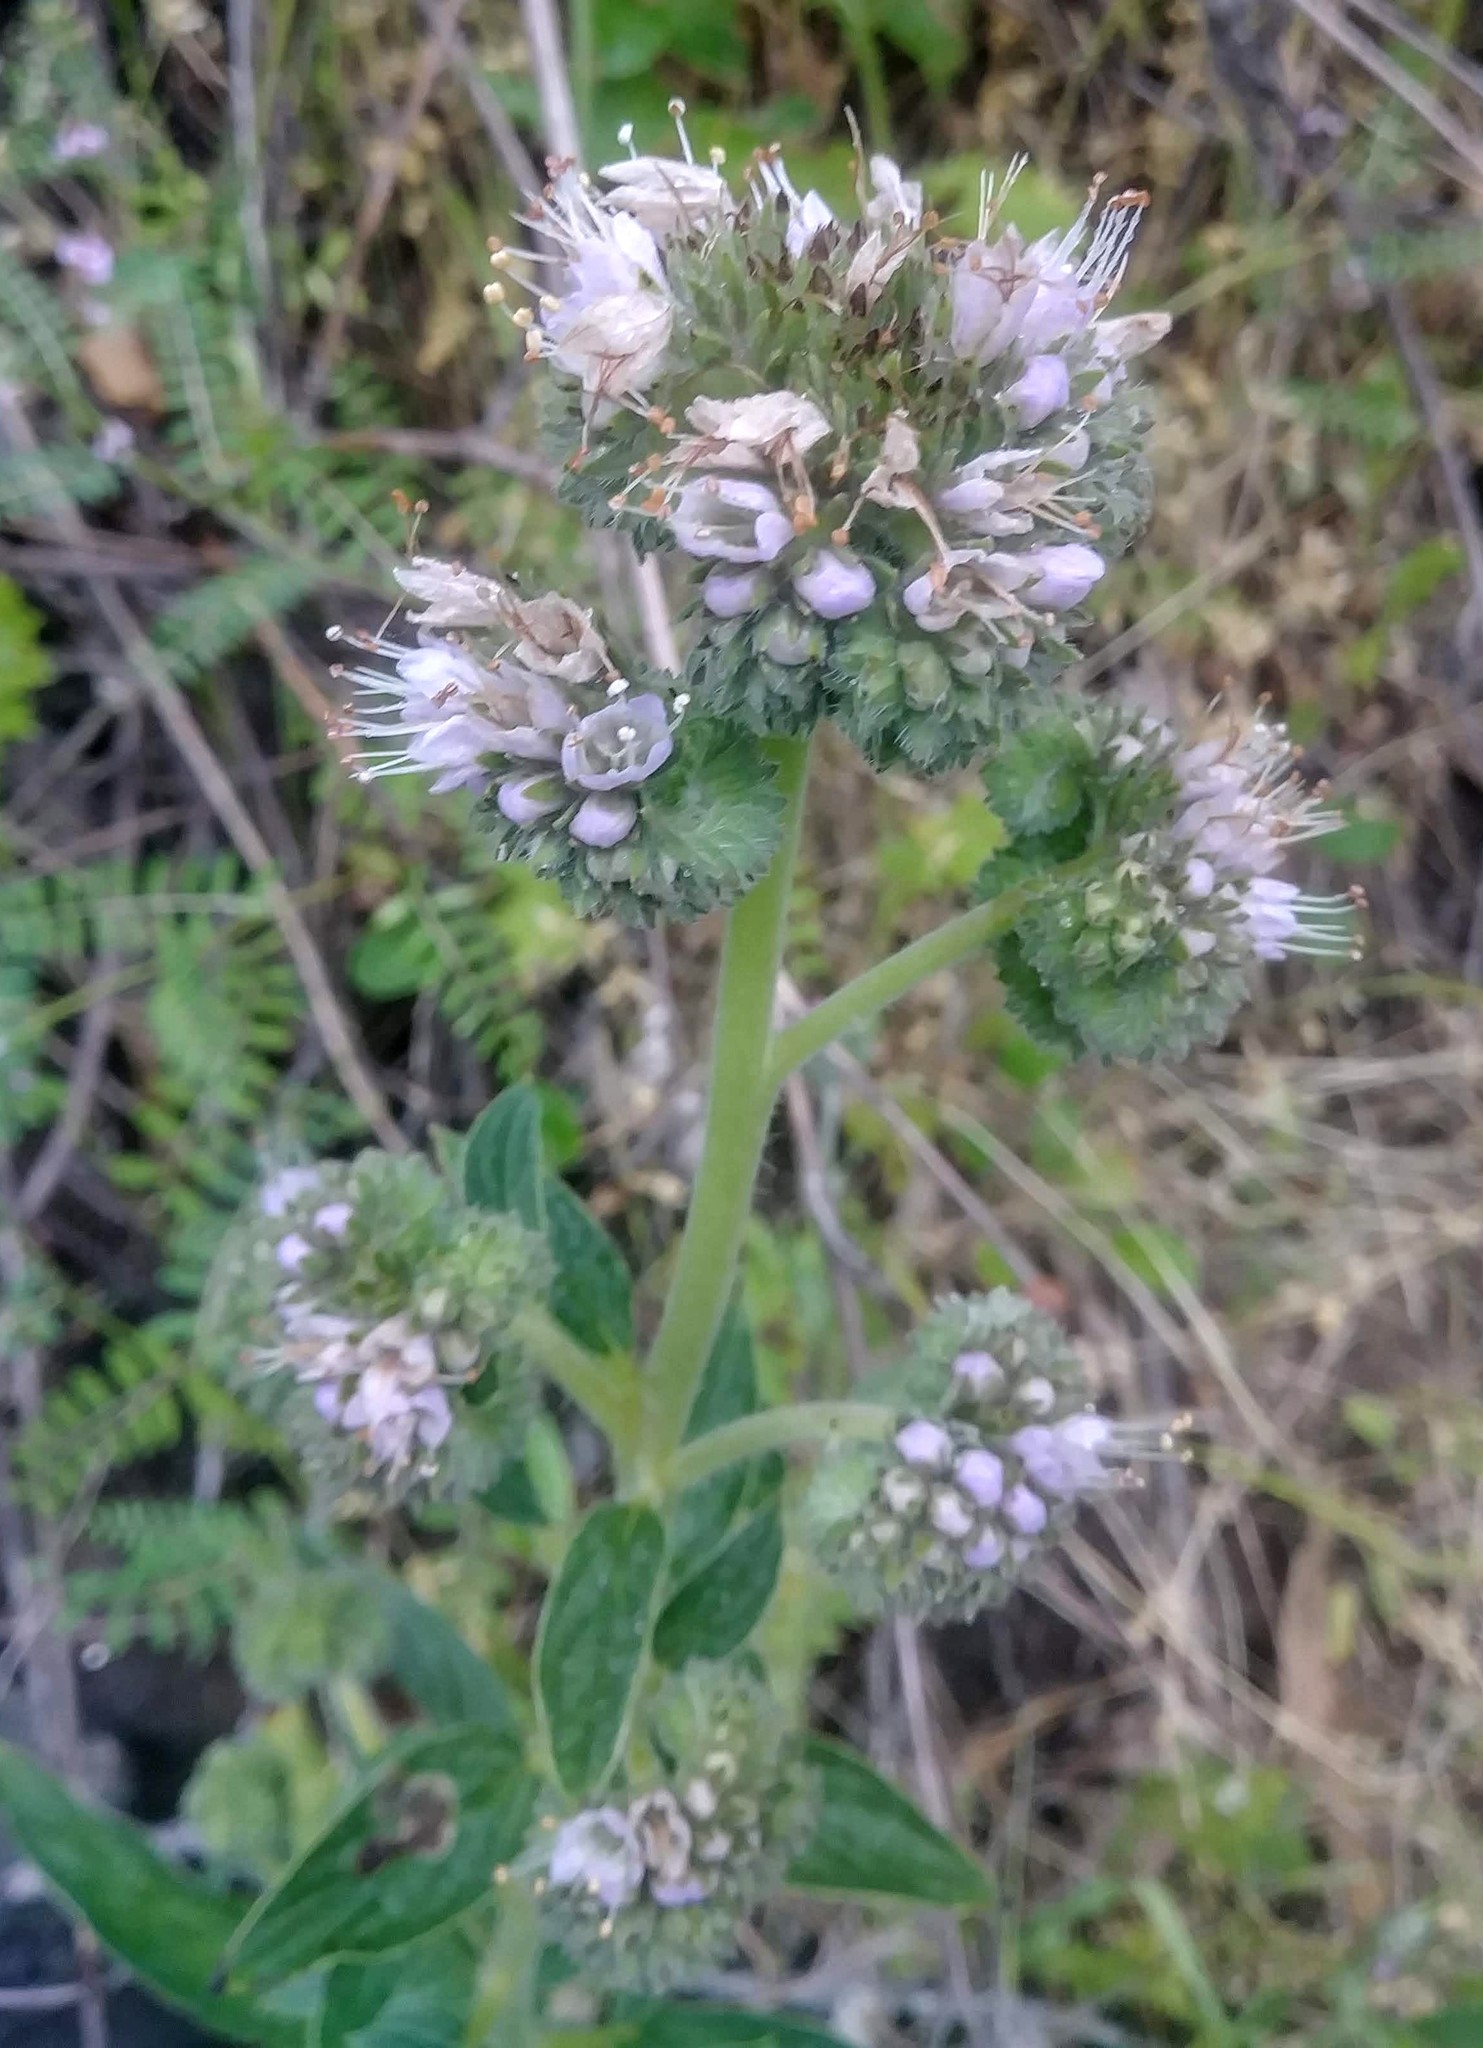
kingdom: Plantae
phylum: Tracheophyta
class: Magnoliopsida
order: Boraginales
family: Hydrophyllaceae
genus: Phacelia
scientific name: Phacelia californica
